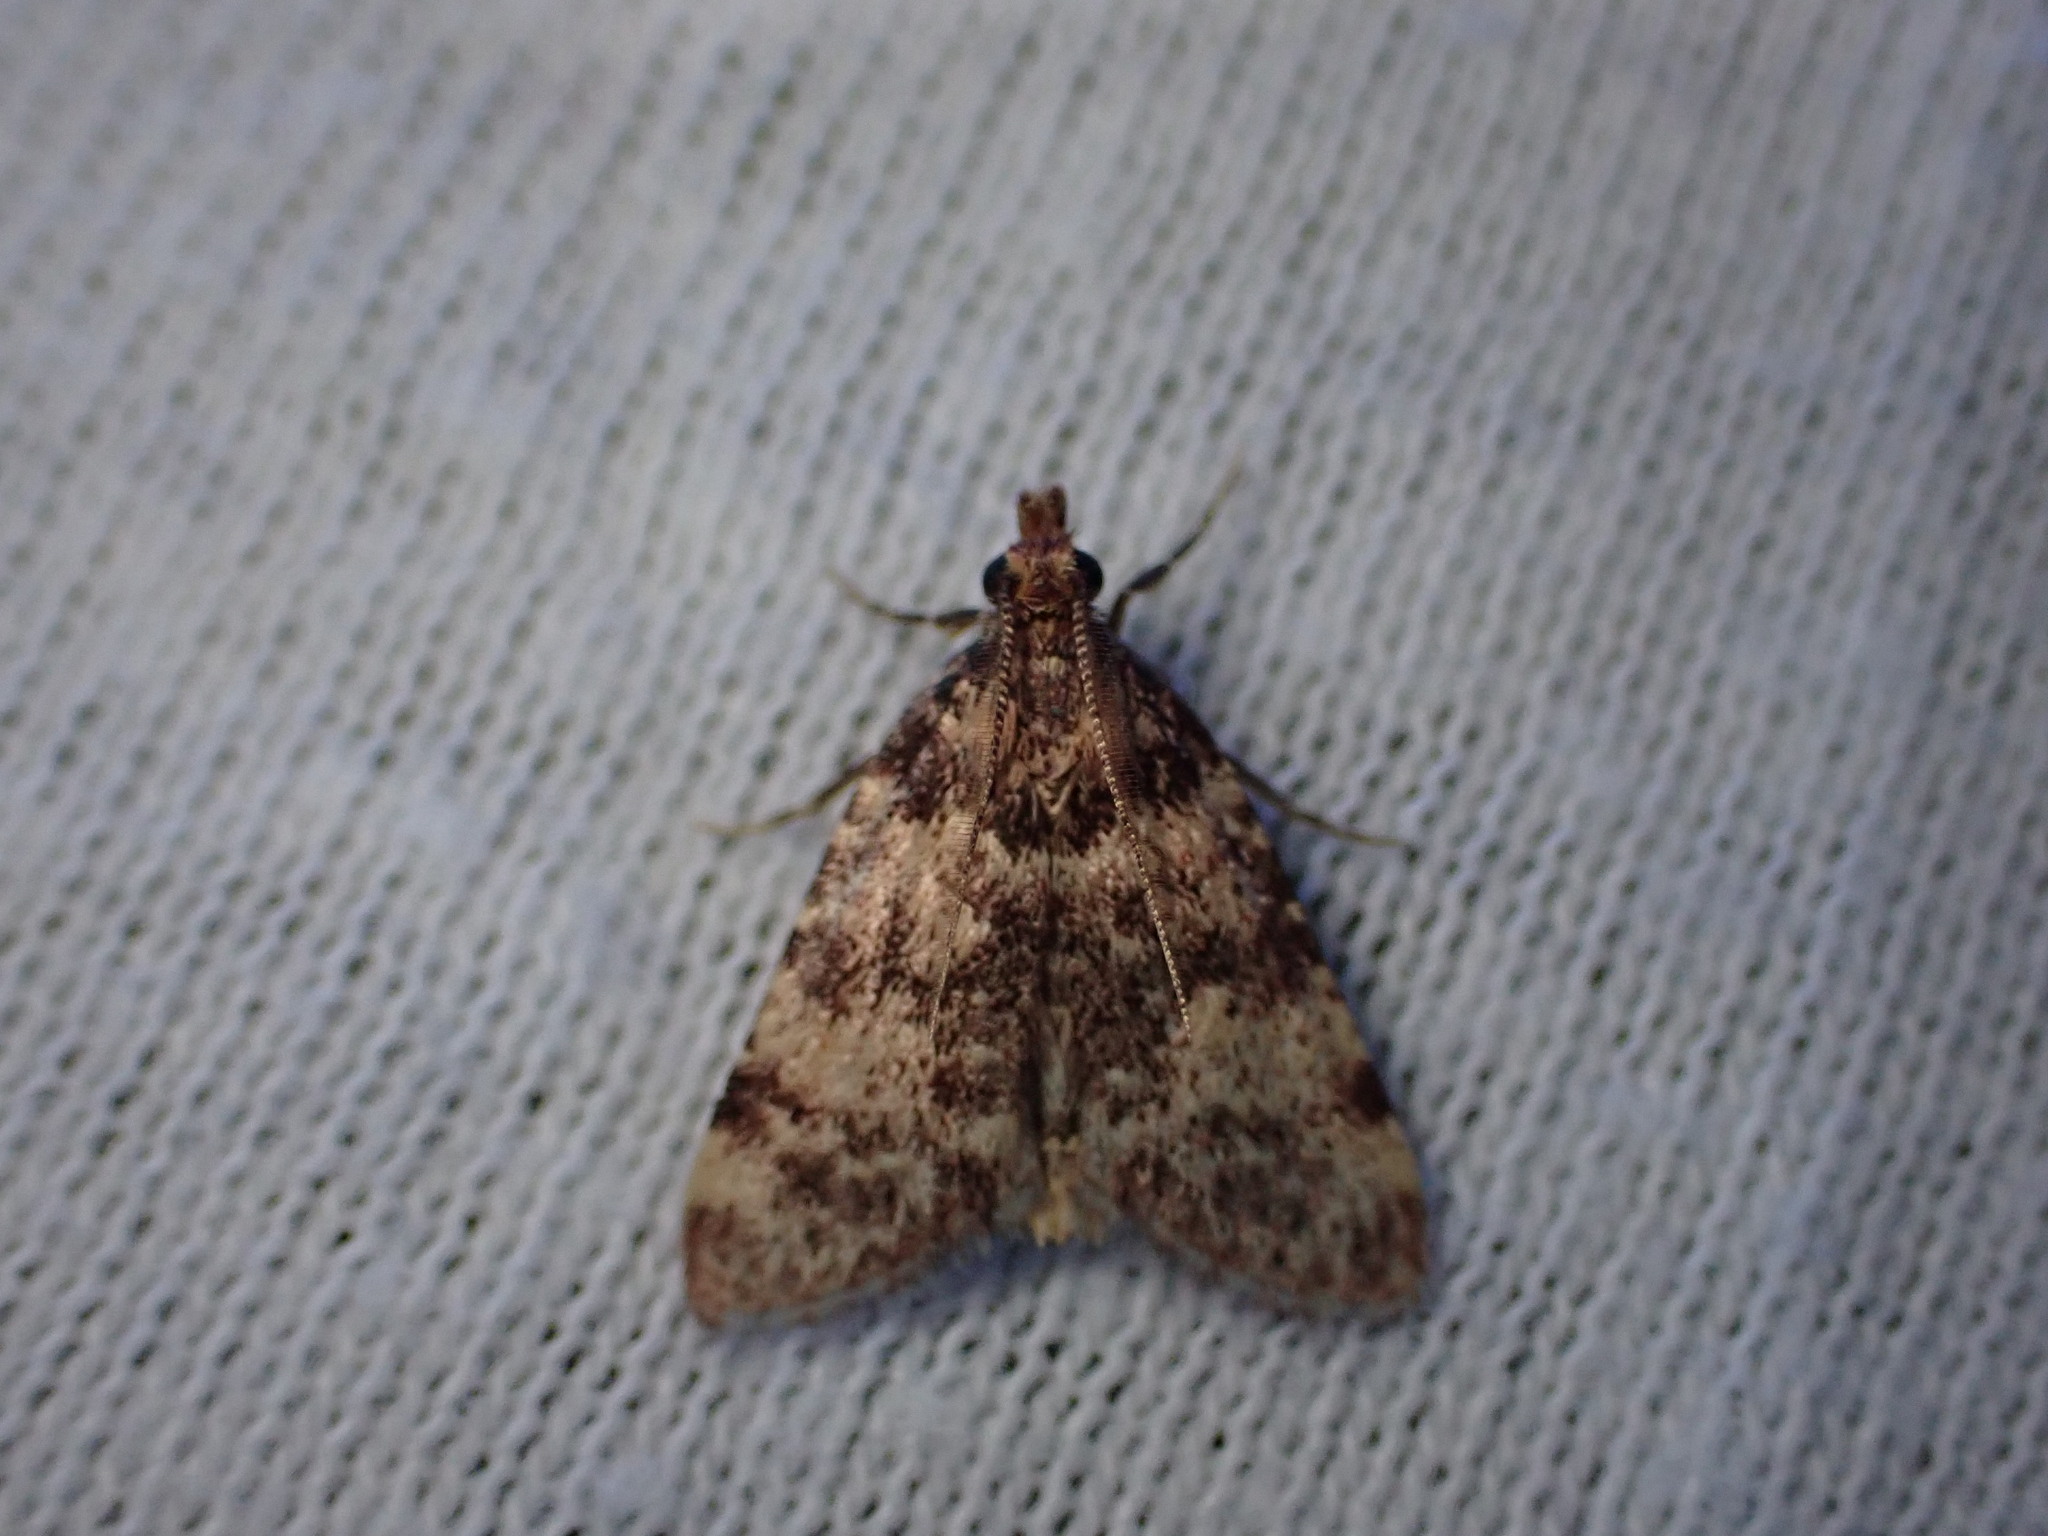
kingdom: Animalia
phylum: Arthropoda
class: Insecta
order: Lepidoptera
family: Pyralidae
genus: Aglossa
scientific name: Aglossa brabanti
